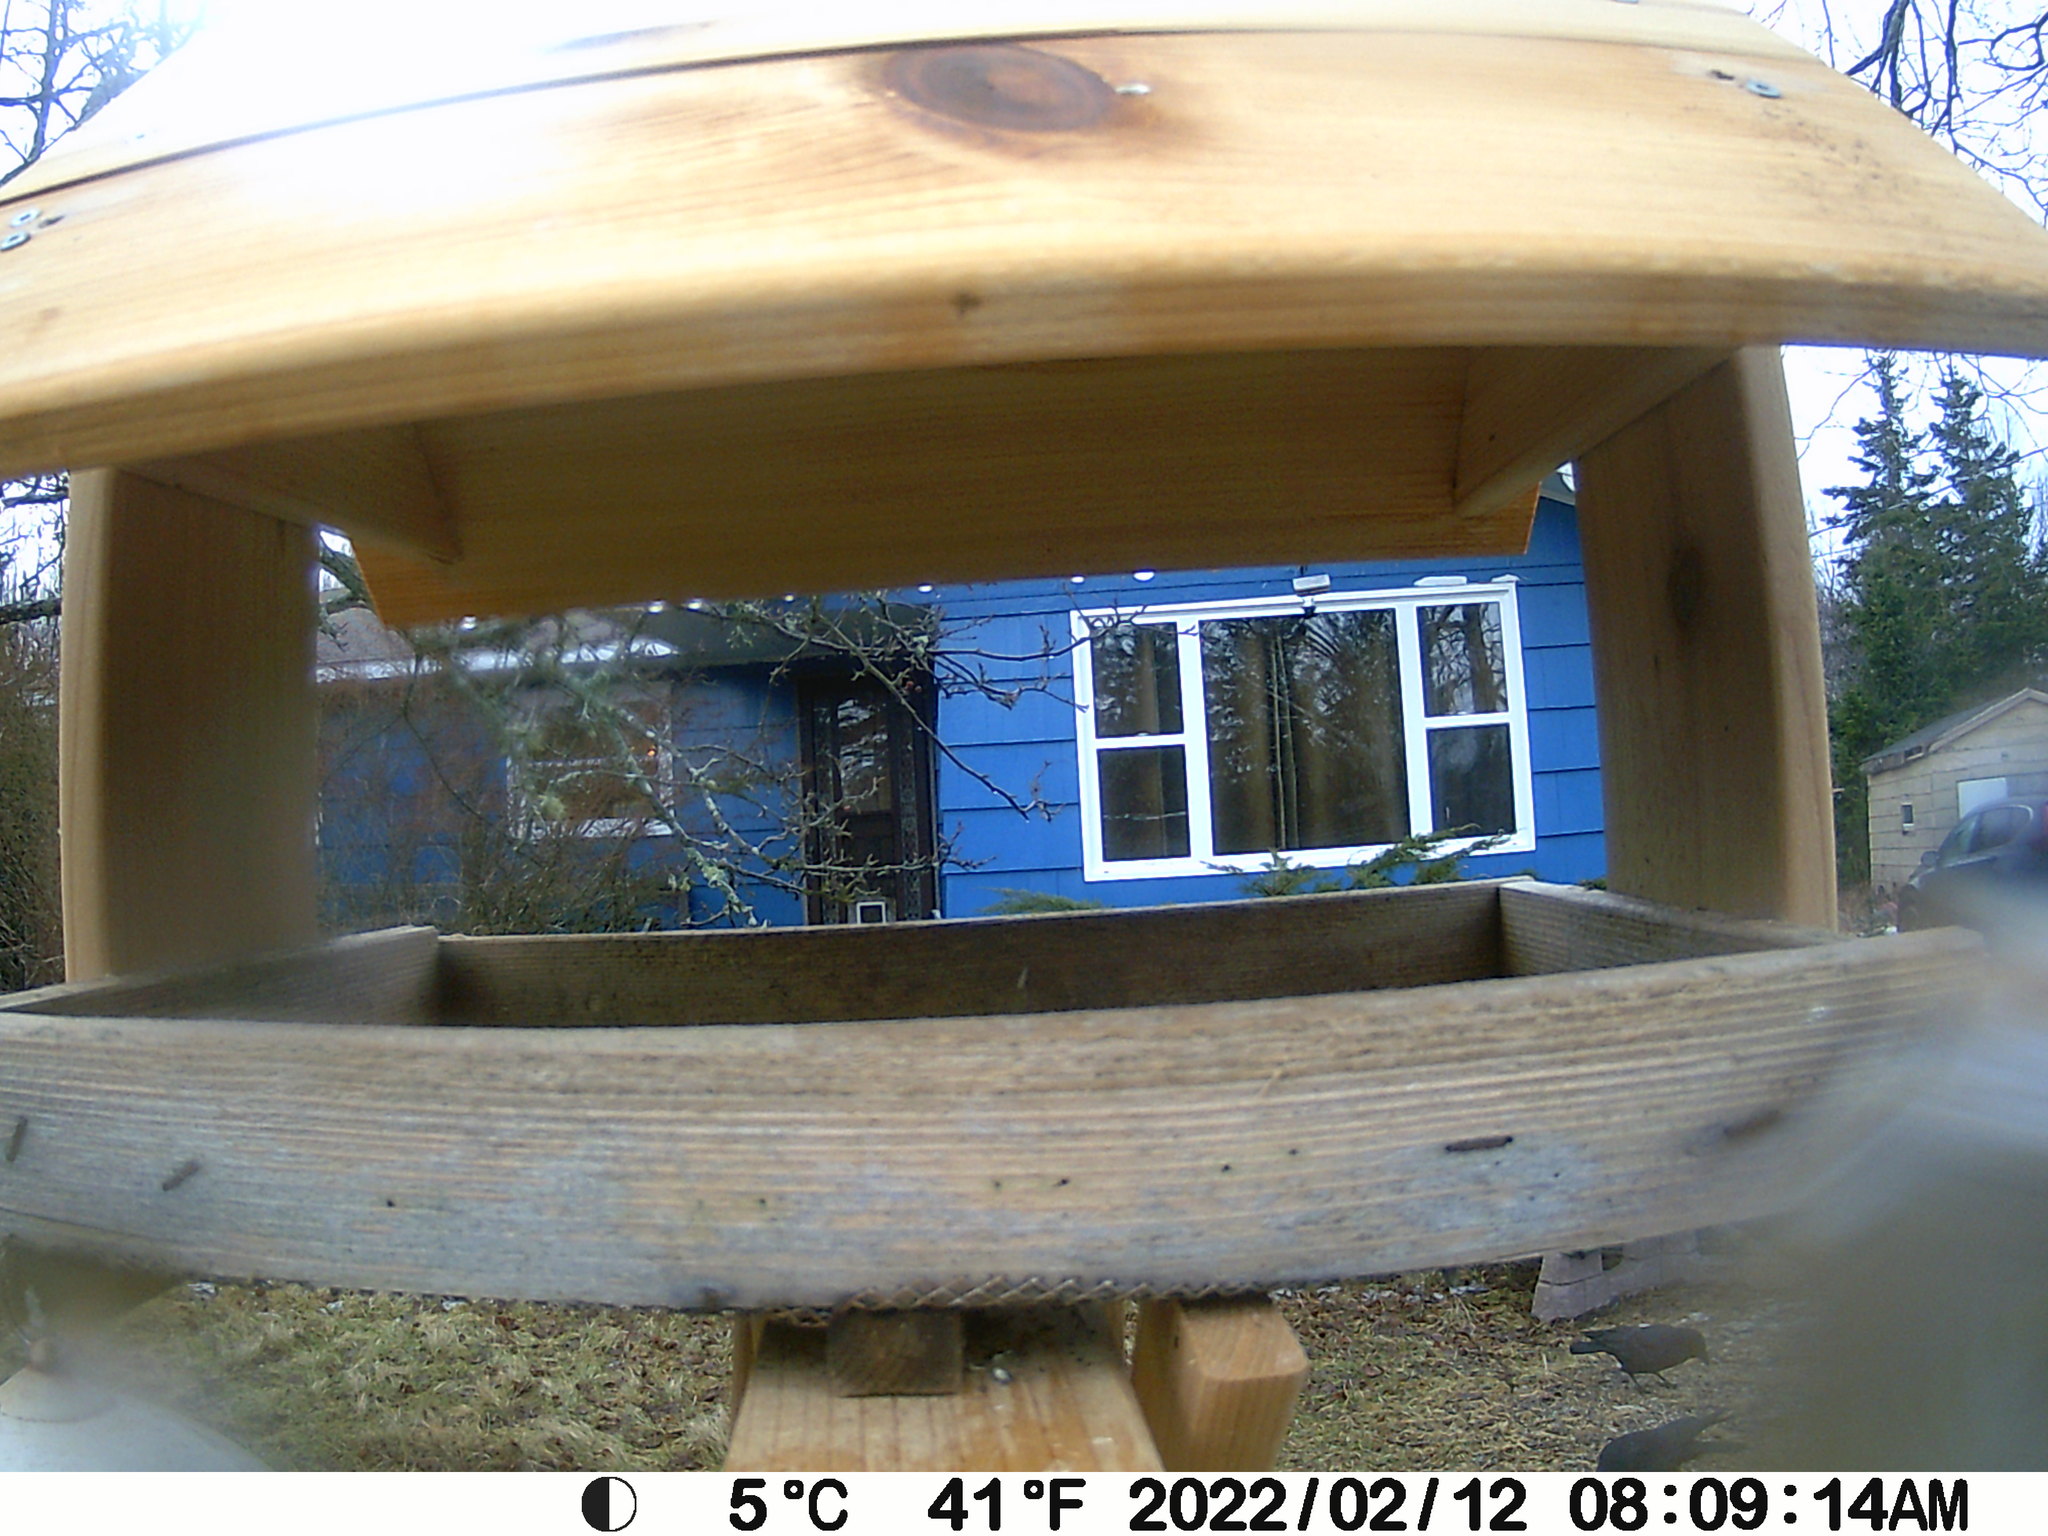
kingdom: Animalia
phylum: Chordata
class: Aves
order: Passeriformes
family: Corvidae
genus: Corvus
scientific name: Corvus brachyrhynchos
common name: American crow
